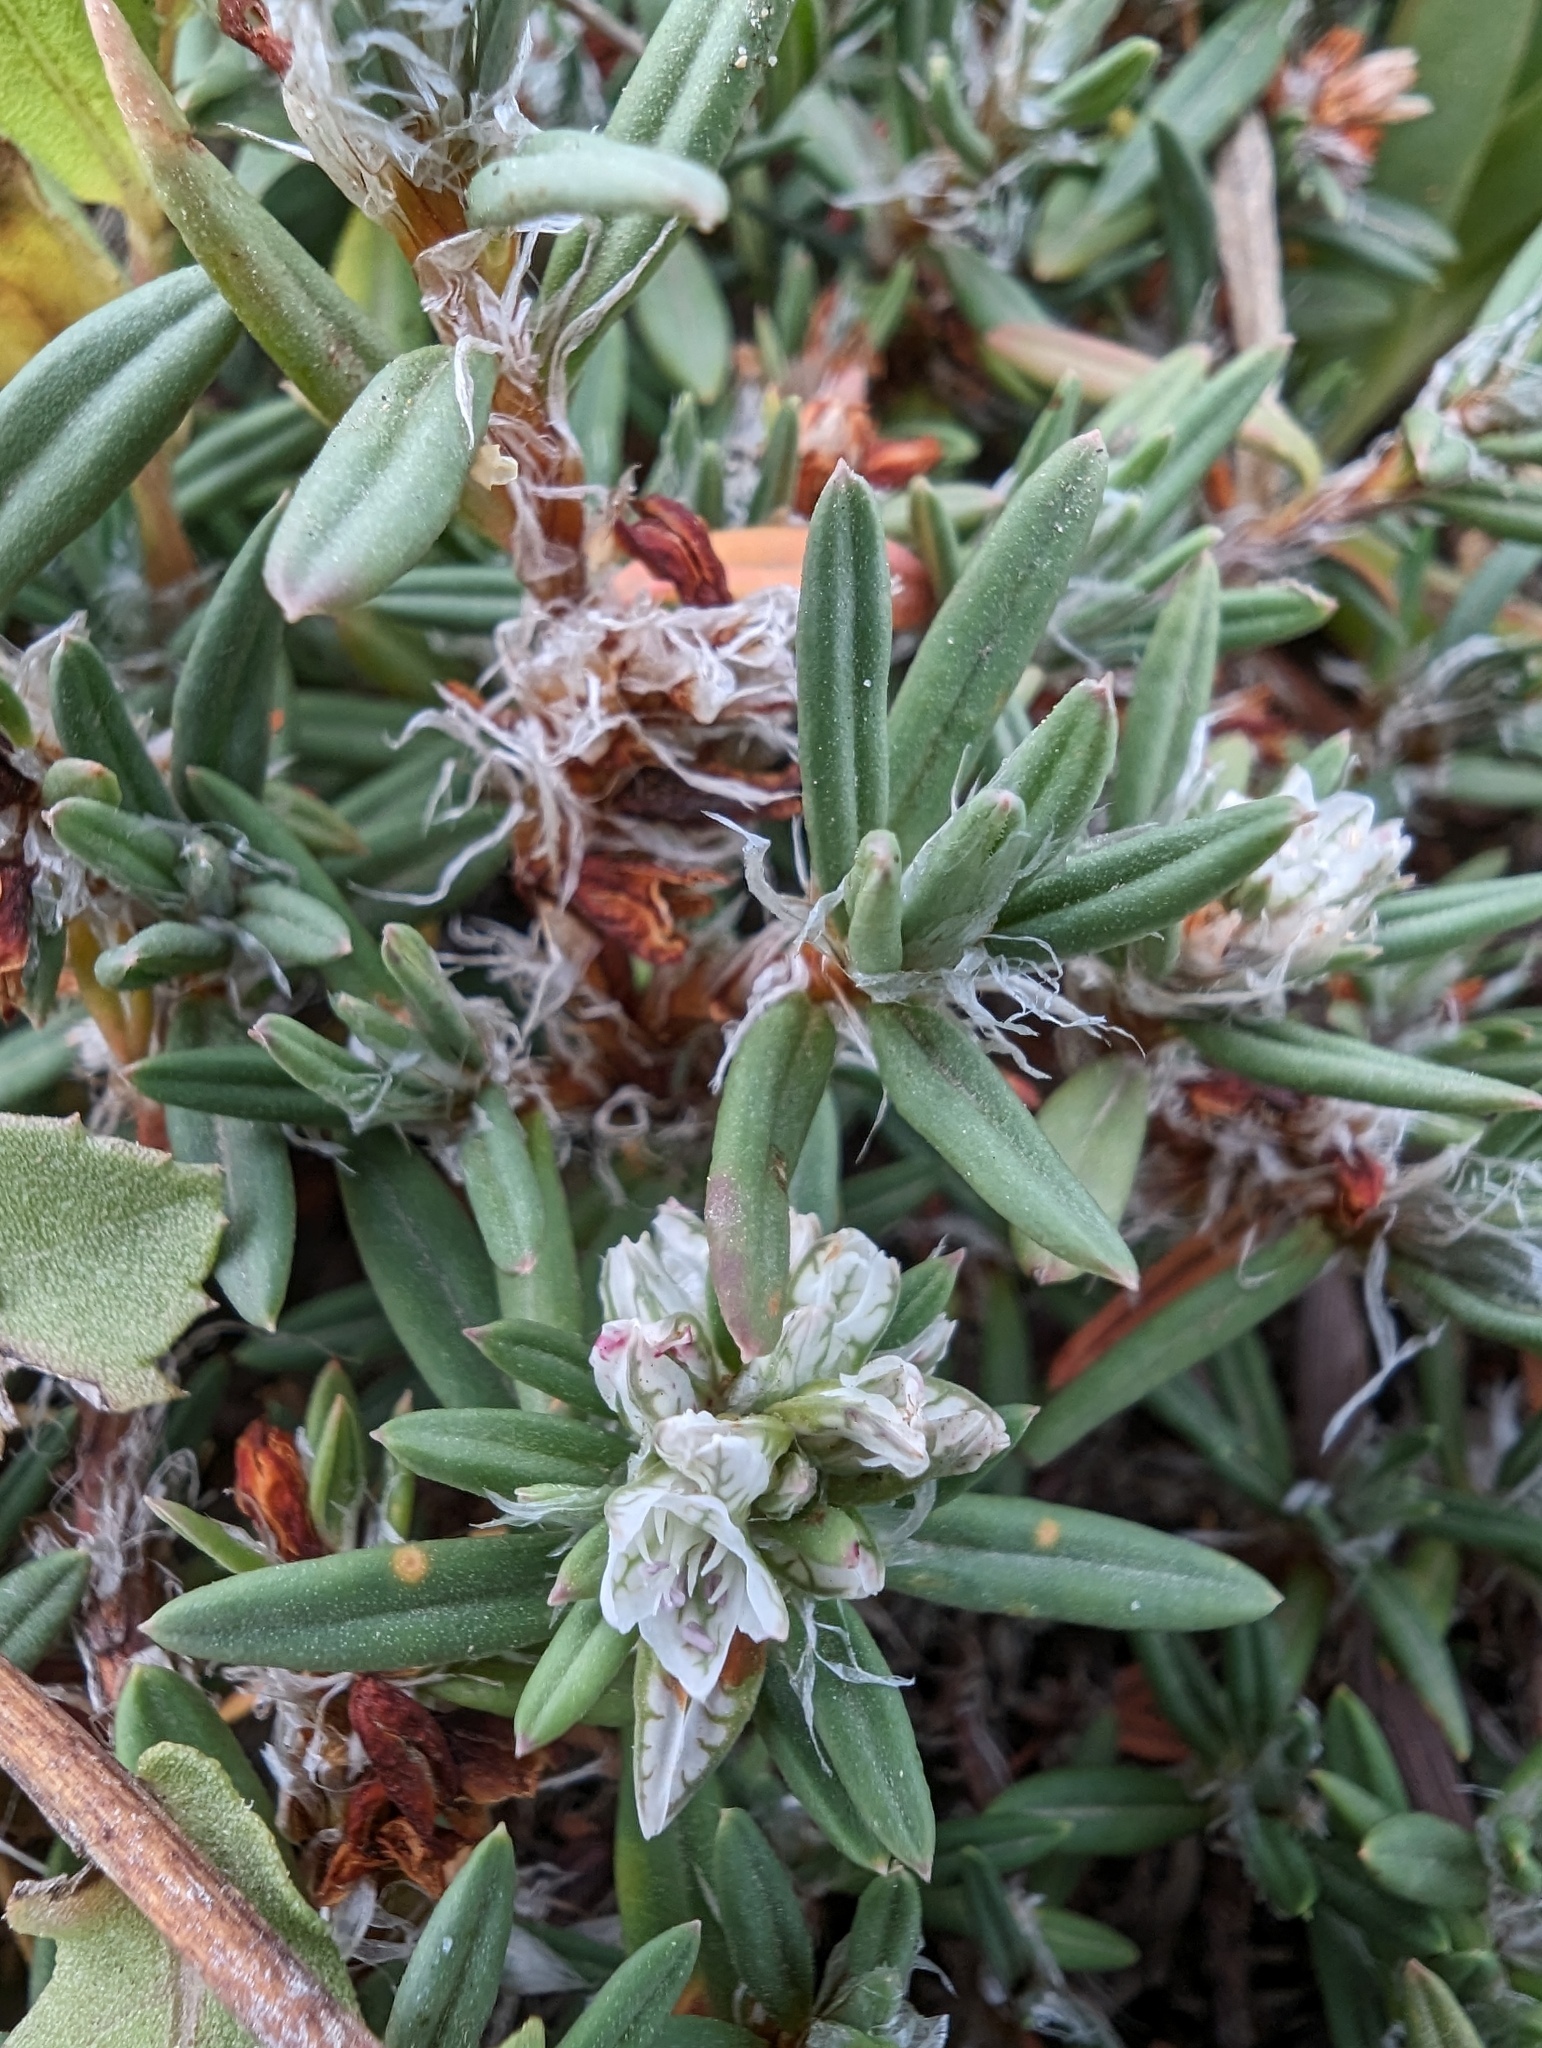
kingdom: Plantae
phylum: Tracheophyta
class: Magnoliopsida
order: Caryophyllales
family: Polygonaceae
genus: Polygonum
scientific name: Polygonum paronychia
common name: Dune knotweed
